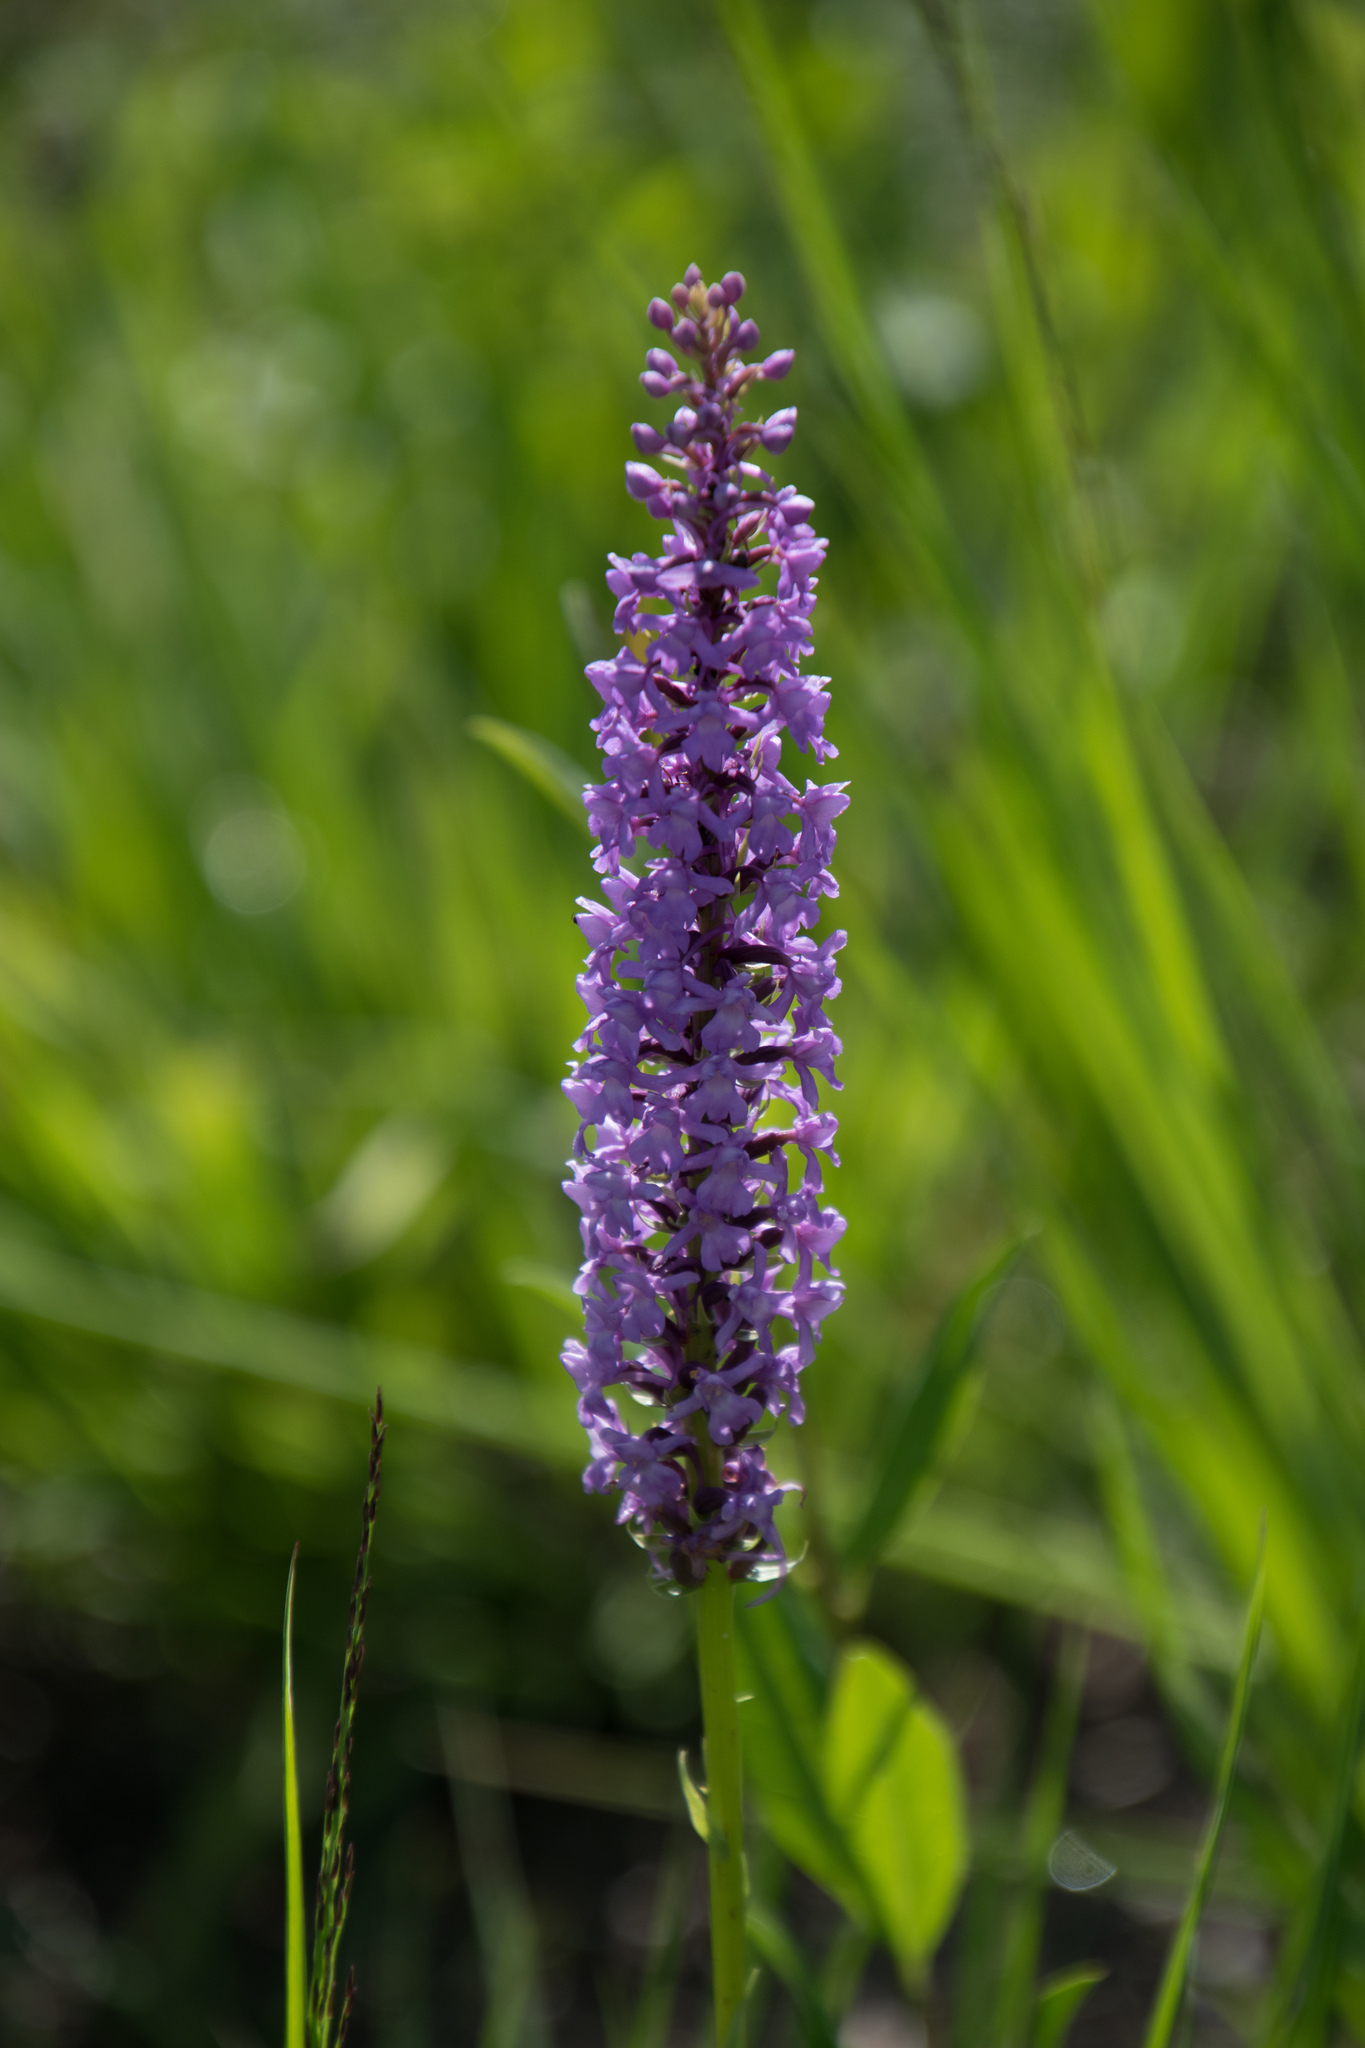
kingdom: Plantae
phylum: Tracheophyta
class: Liliopsida
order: Asparagales
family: Orchidaceae
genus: Gymnadenia
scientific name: Gymnadenia densiflora
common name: Marsh fragrant-orchid
